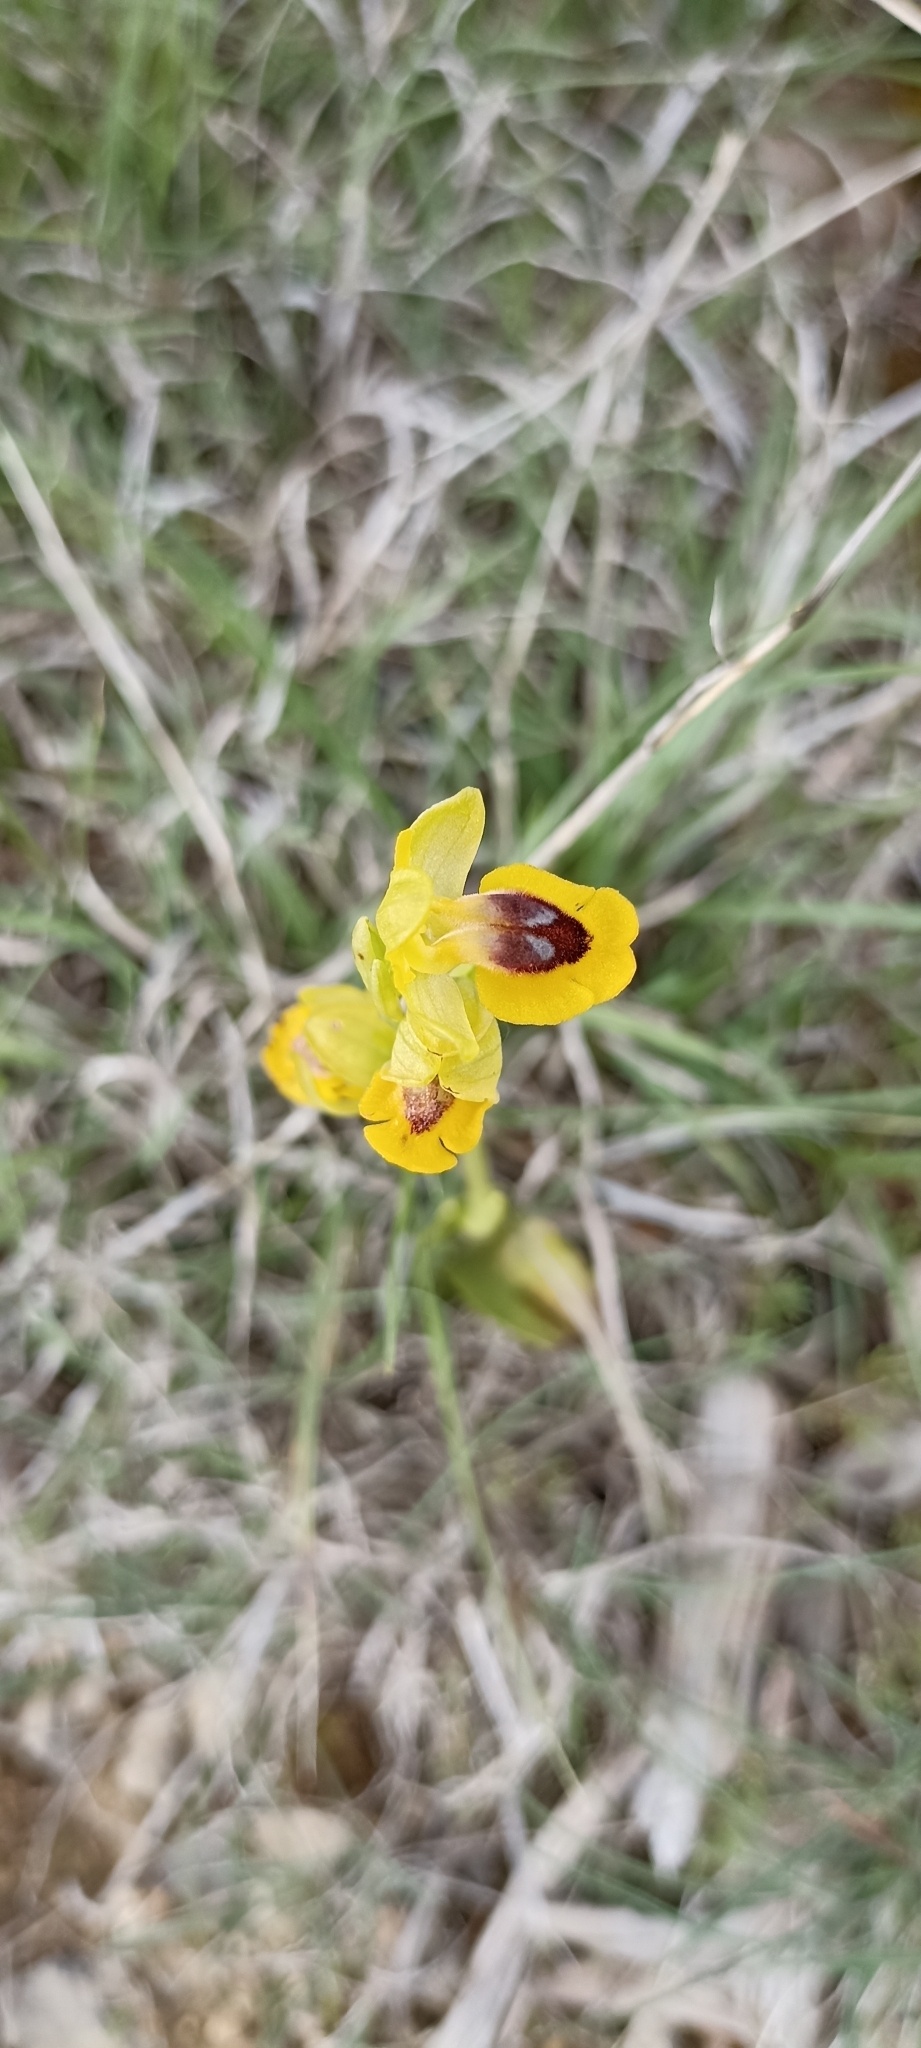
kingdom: Plantae
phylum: Tracheophyta
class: Liliopsida
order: Asparagales
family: Orchidaceae
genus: Ophrys
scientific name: Ophrys lutea
